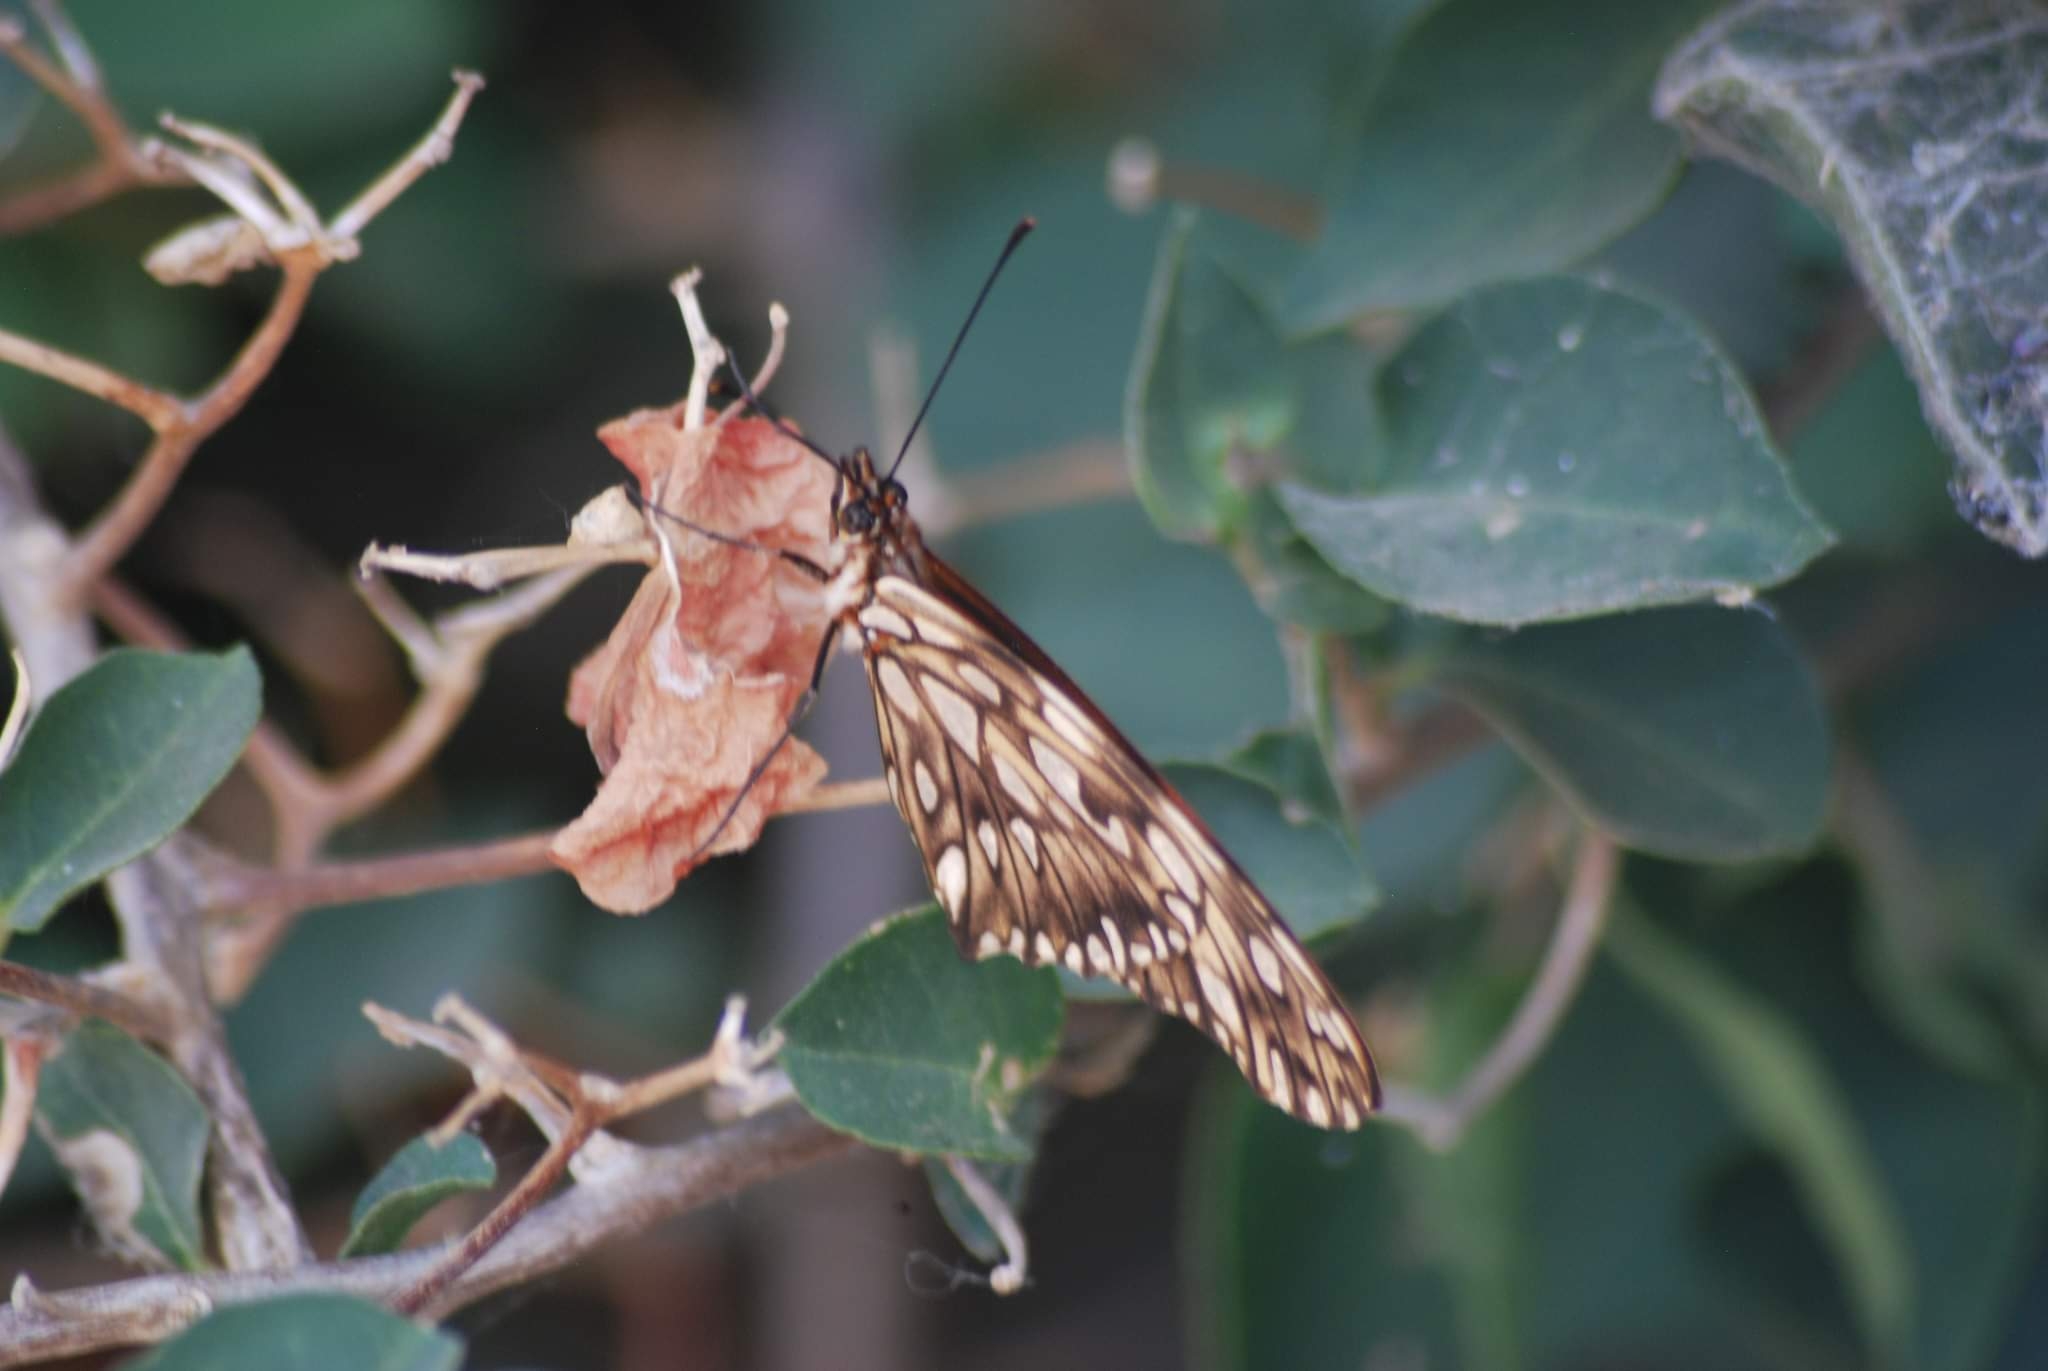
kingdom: Animalia
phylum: Arthropoda
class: Insecta
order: Lepidoptera
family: Nymphalidae
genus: Dione
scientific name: Dione juno
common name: Juno silverspot
